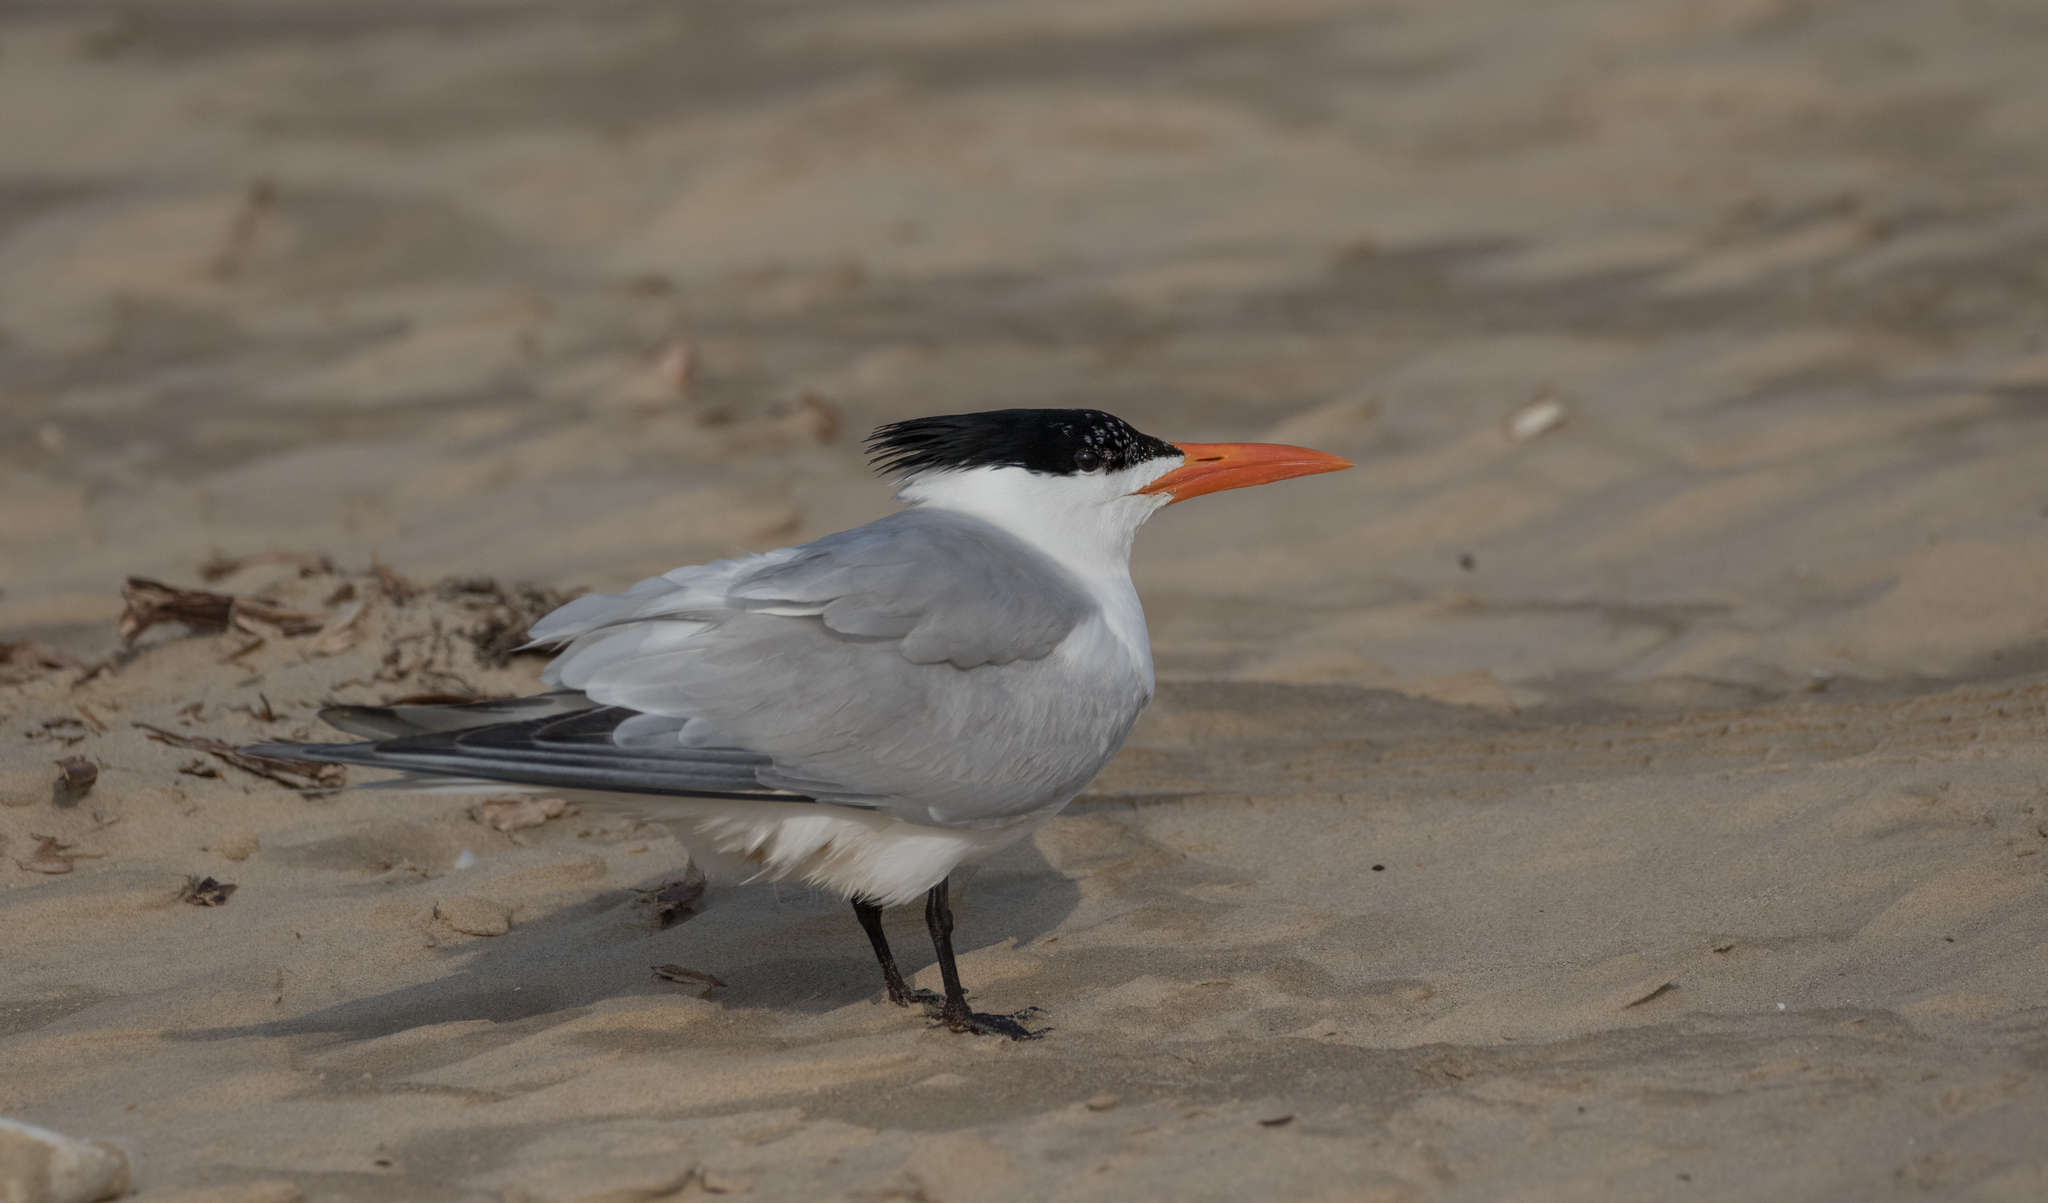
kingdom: Animalia
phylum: Chordata
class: Aves
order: Charadriiformes
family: Laridae
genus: Thalasseus
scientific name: Thalasseus maximus
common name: Royal tern
